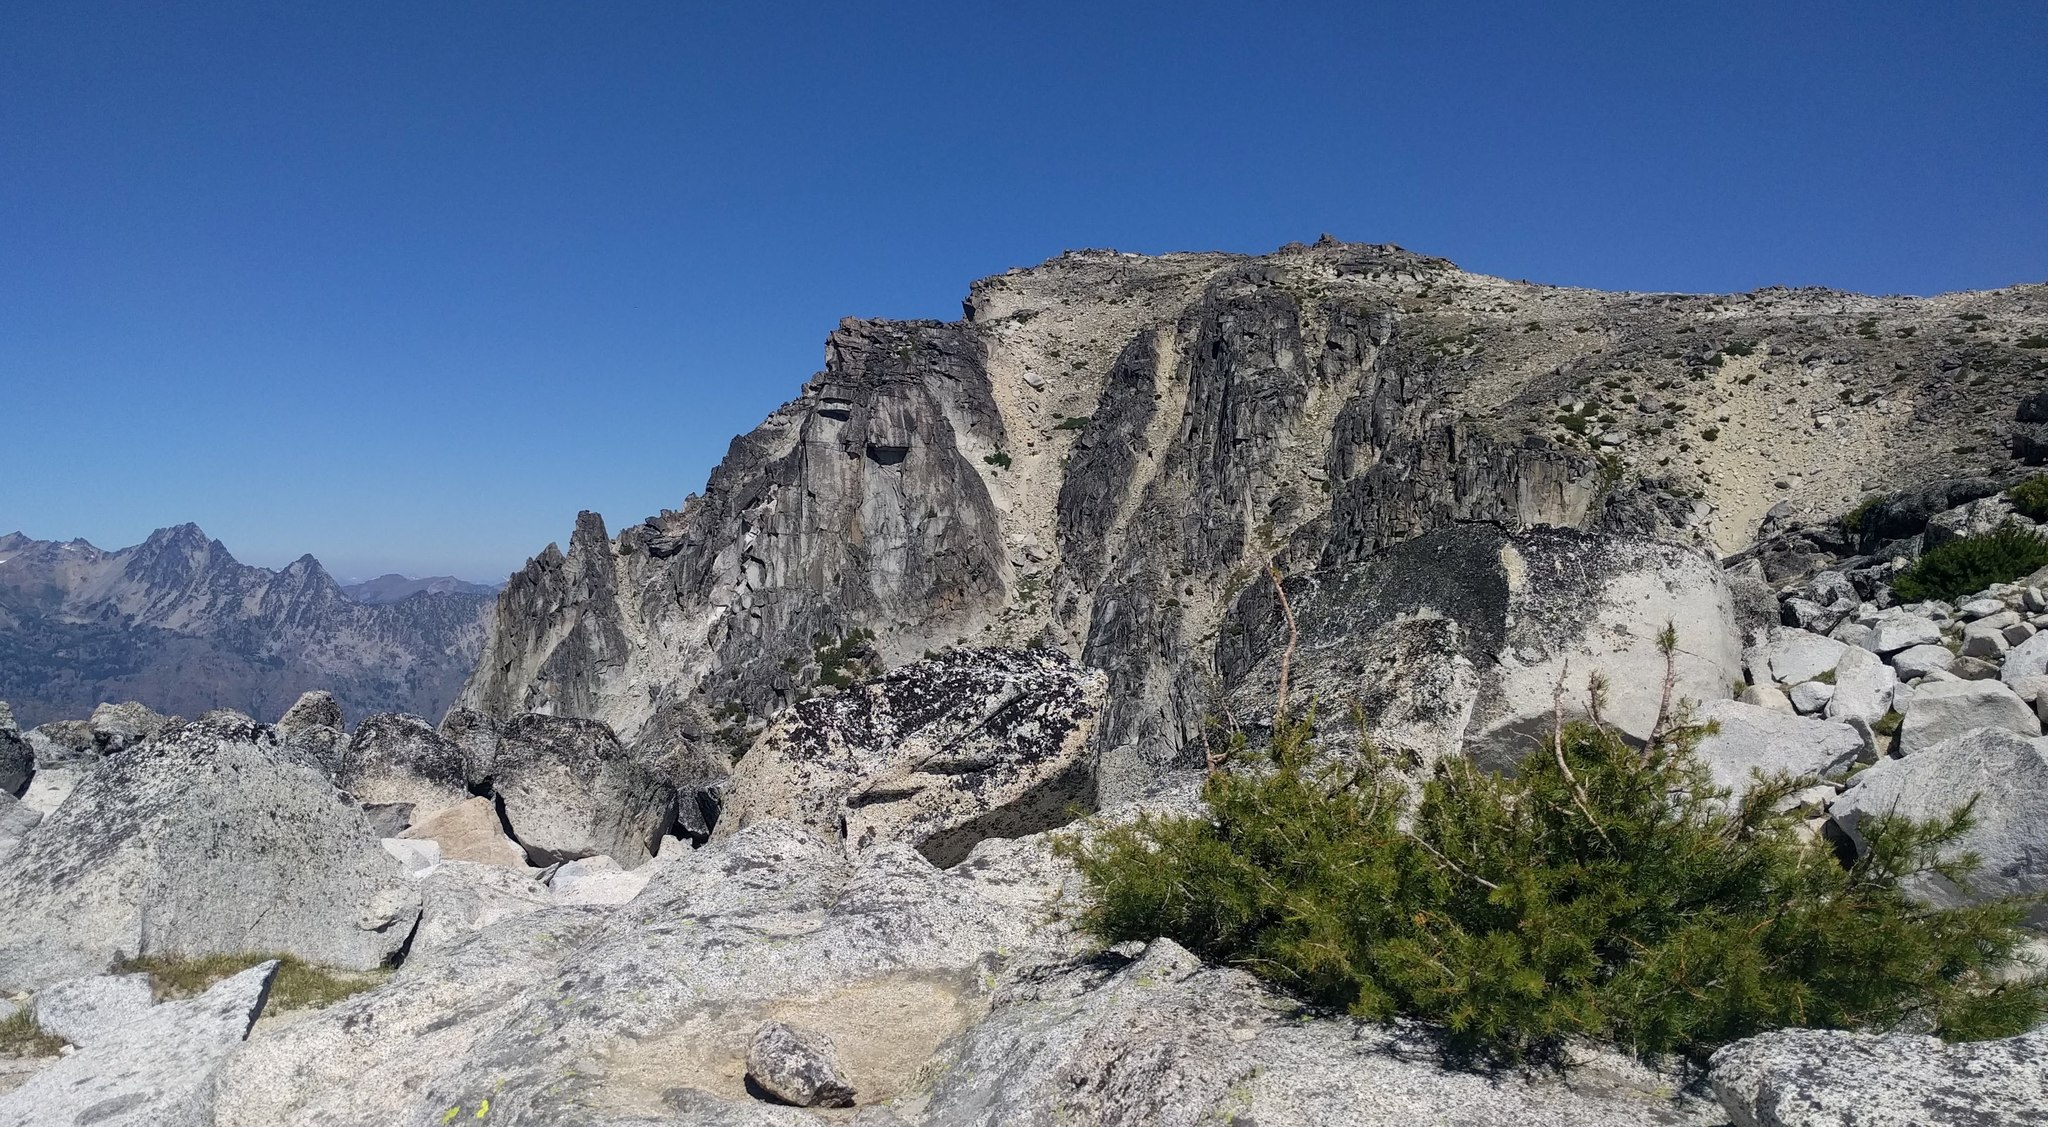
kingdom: Plantae
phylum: Tracheophyta
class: Pinopsida
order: Pinales
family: Pinaceae
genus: Pinus
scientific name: Pinus albicaulis
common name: Whitebark pine
